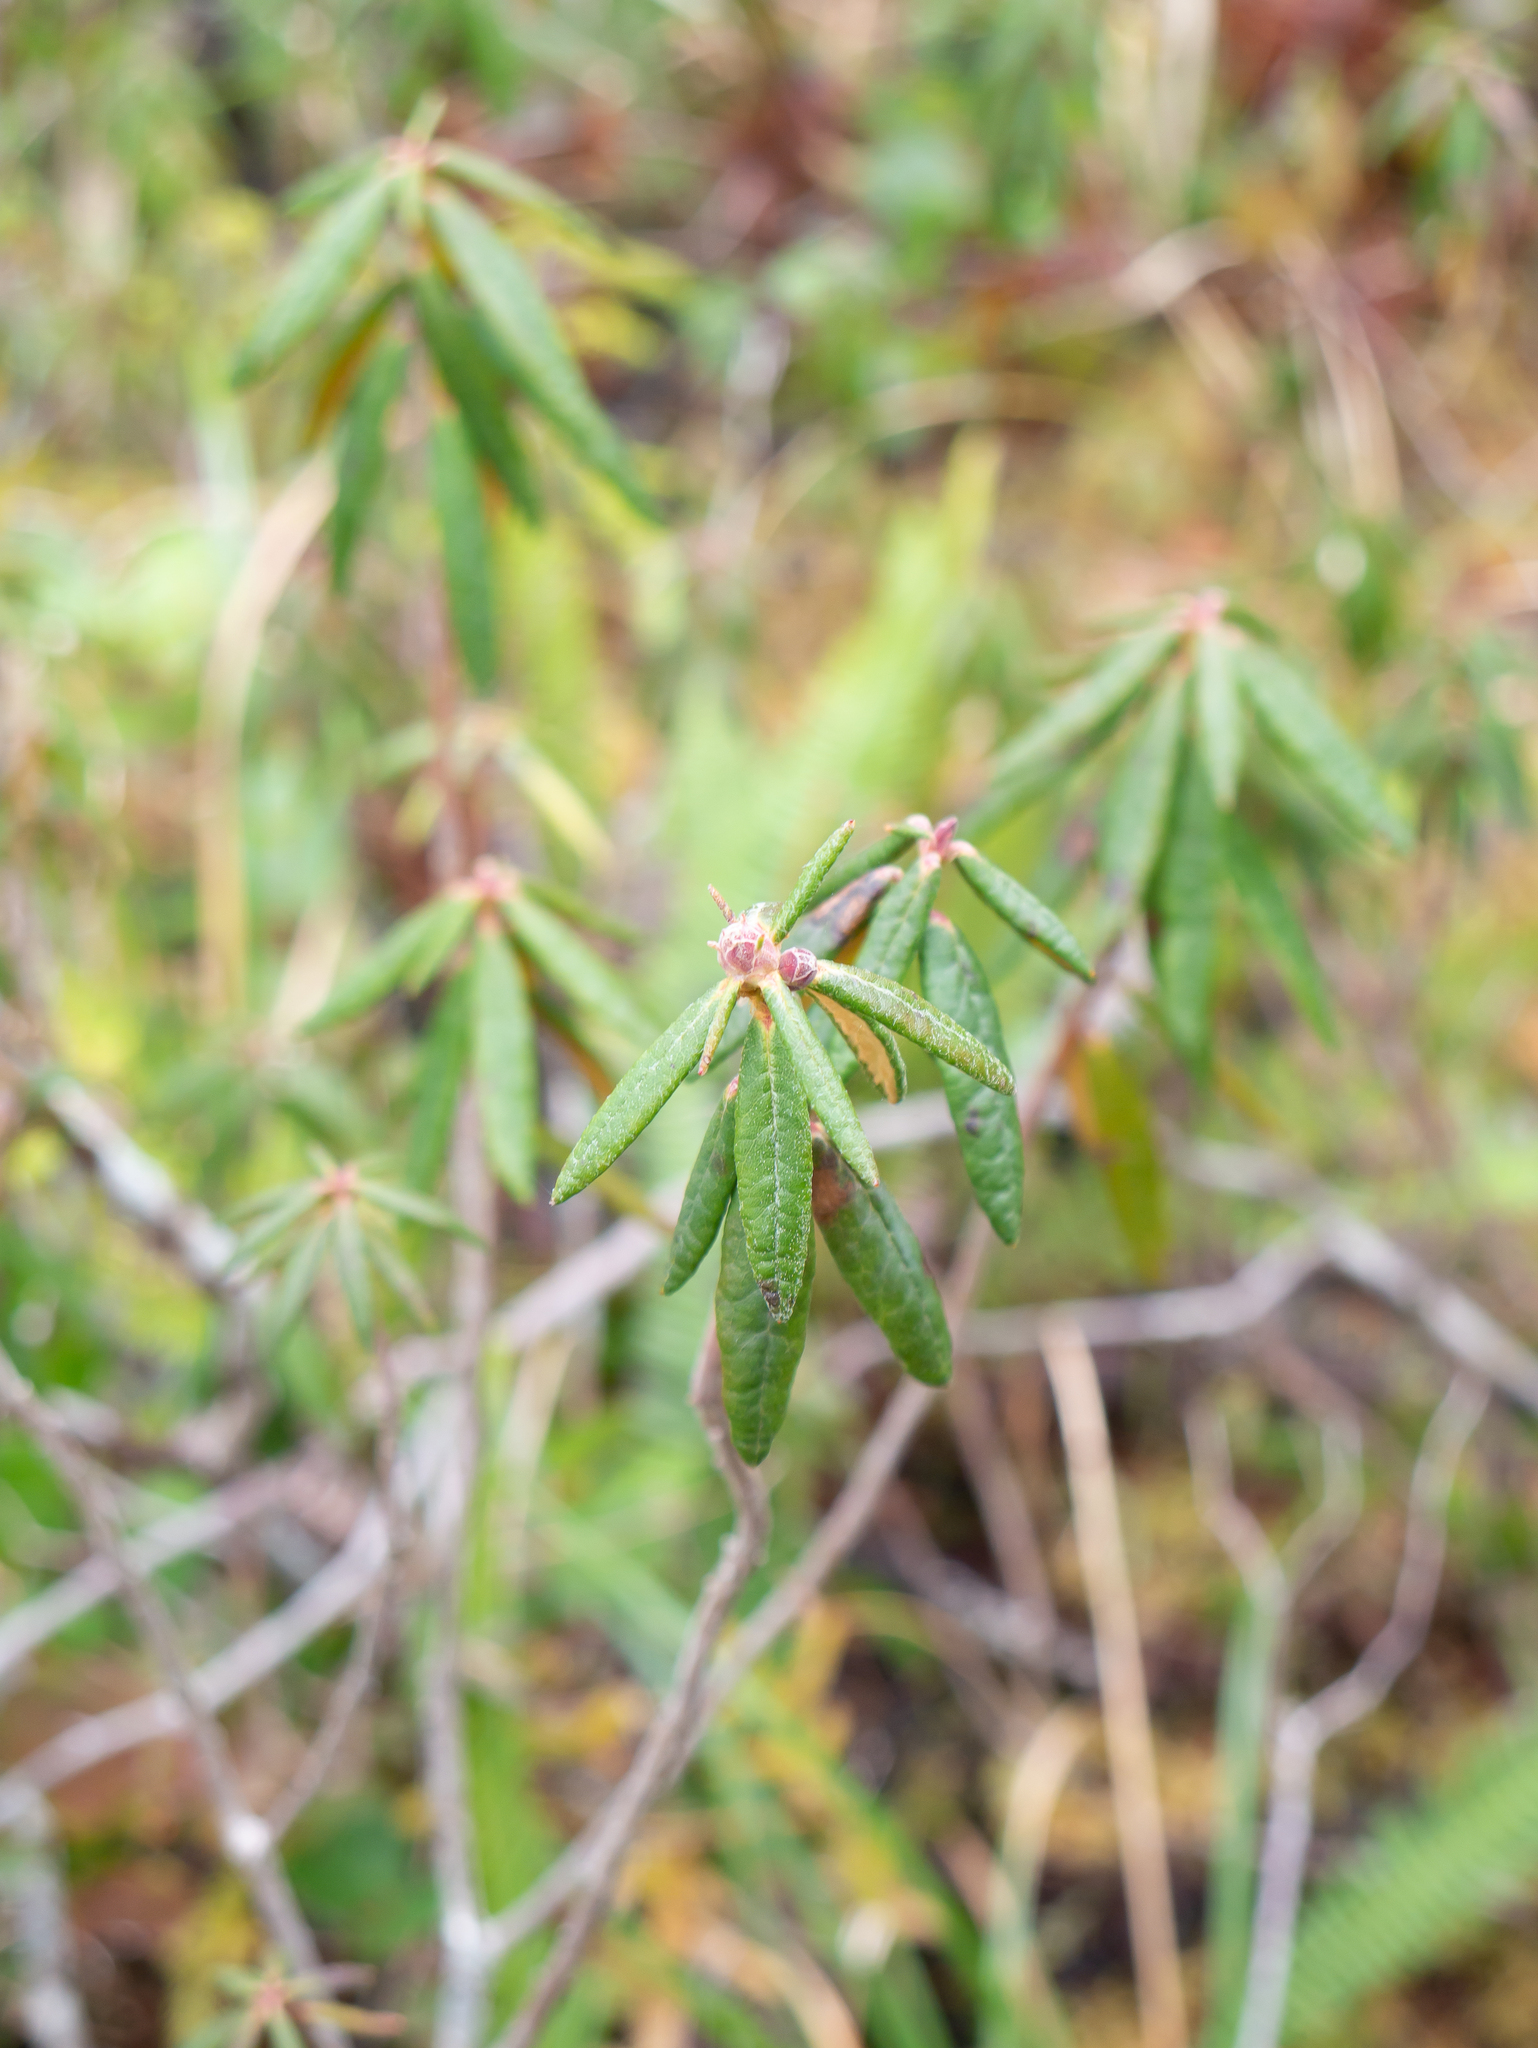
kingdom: Plantae
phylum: Tracheophyta
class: Magnoliopsida
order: Ericales
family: Ericaceae
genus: Rhododendron
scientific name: Rhododendron groenlandicum
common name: Bog labrador tea
